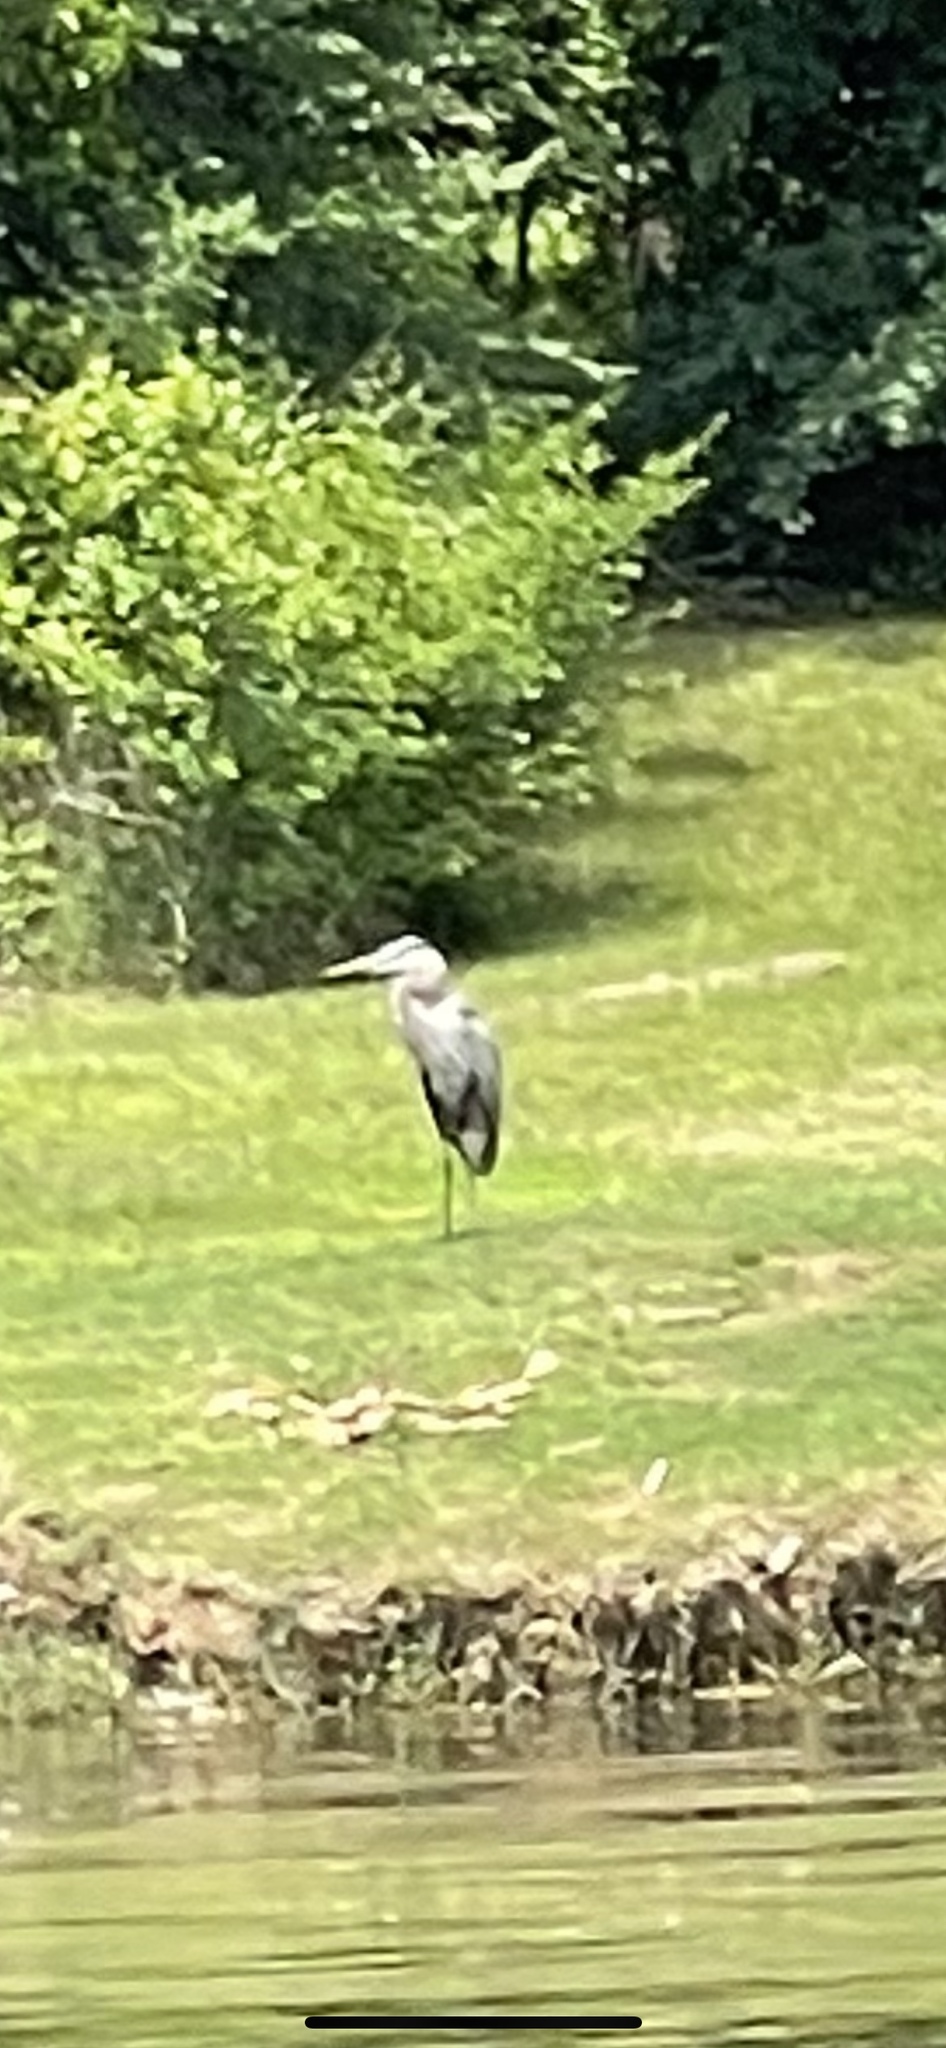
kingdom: Animalia
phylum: Chordata
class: Aves
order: Pelecaniformes
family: Ardeidae
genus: Ardea
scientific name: Ardea herodias
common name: Great blue heron
